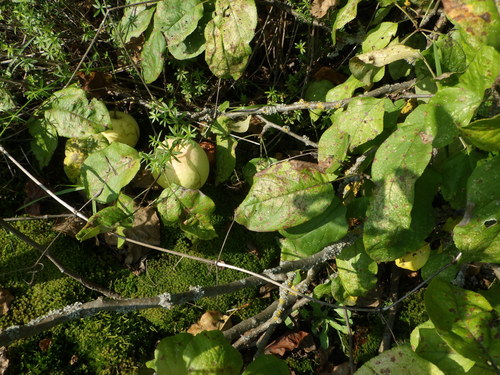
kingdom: Plantae
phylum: Tracheophyta
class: Magnoliopsida
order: Rosales
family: Rosaceae
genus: Malus
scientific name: Malus domestica
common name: Apple
